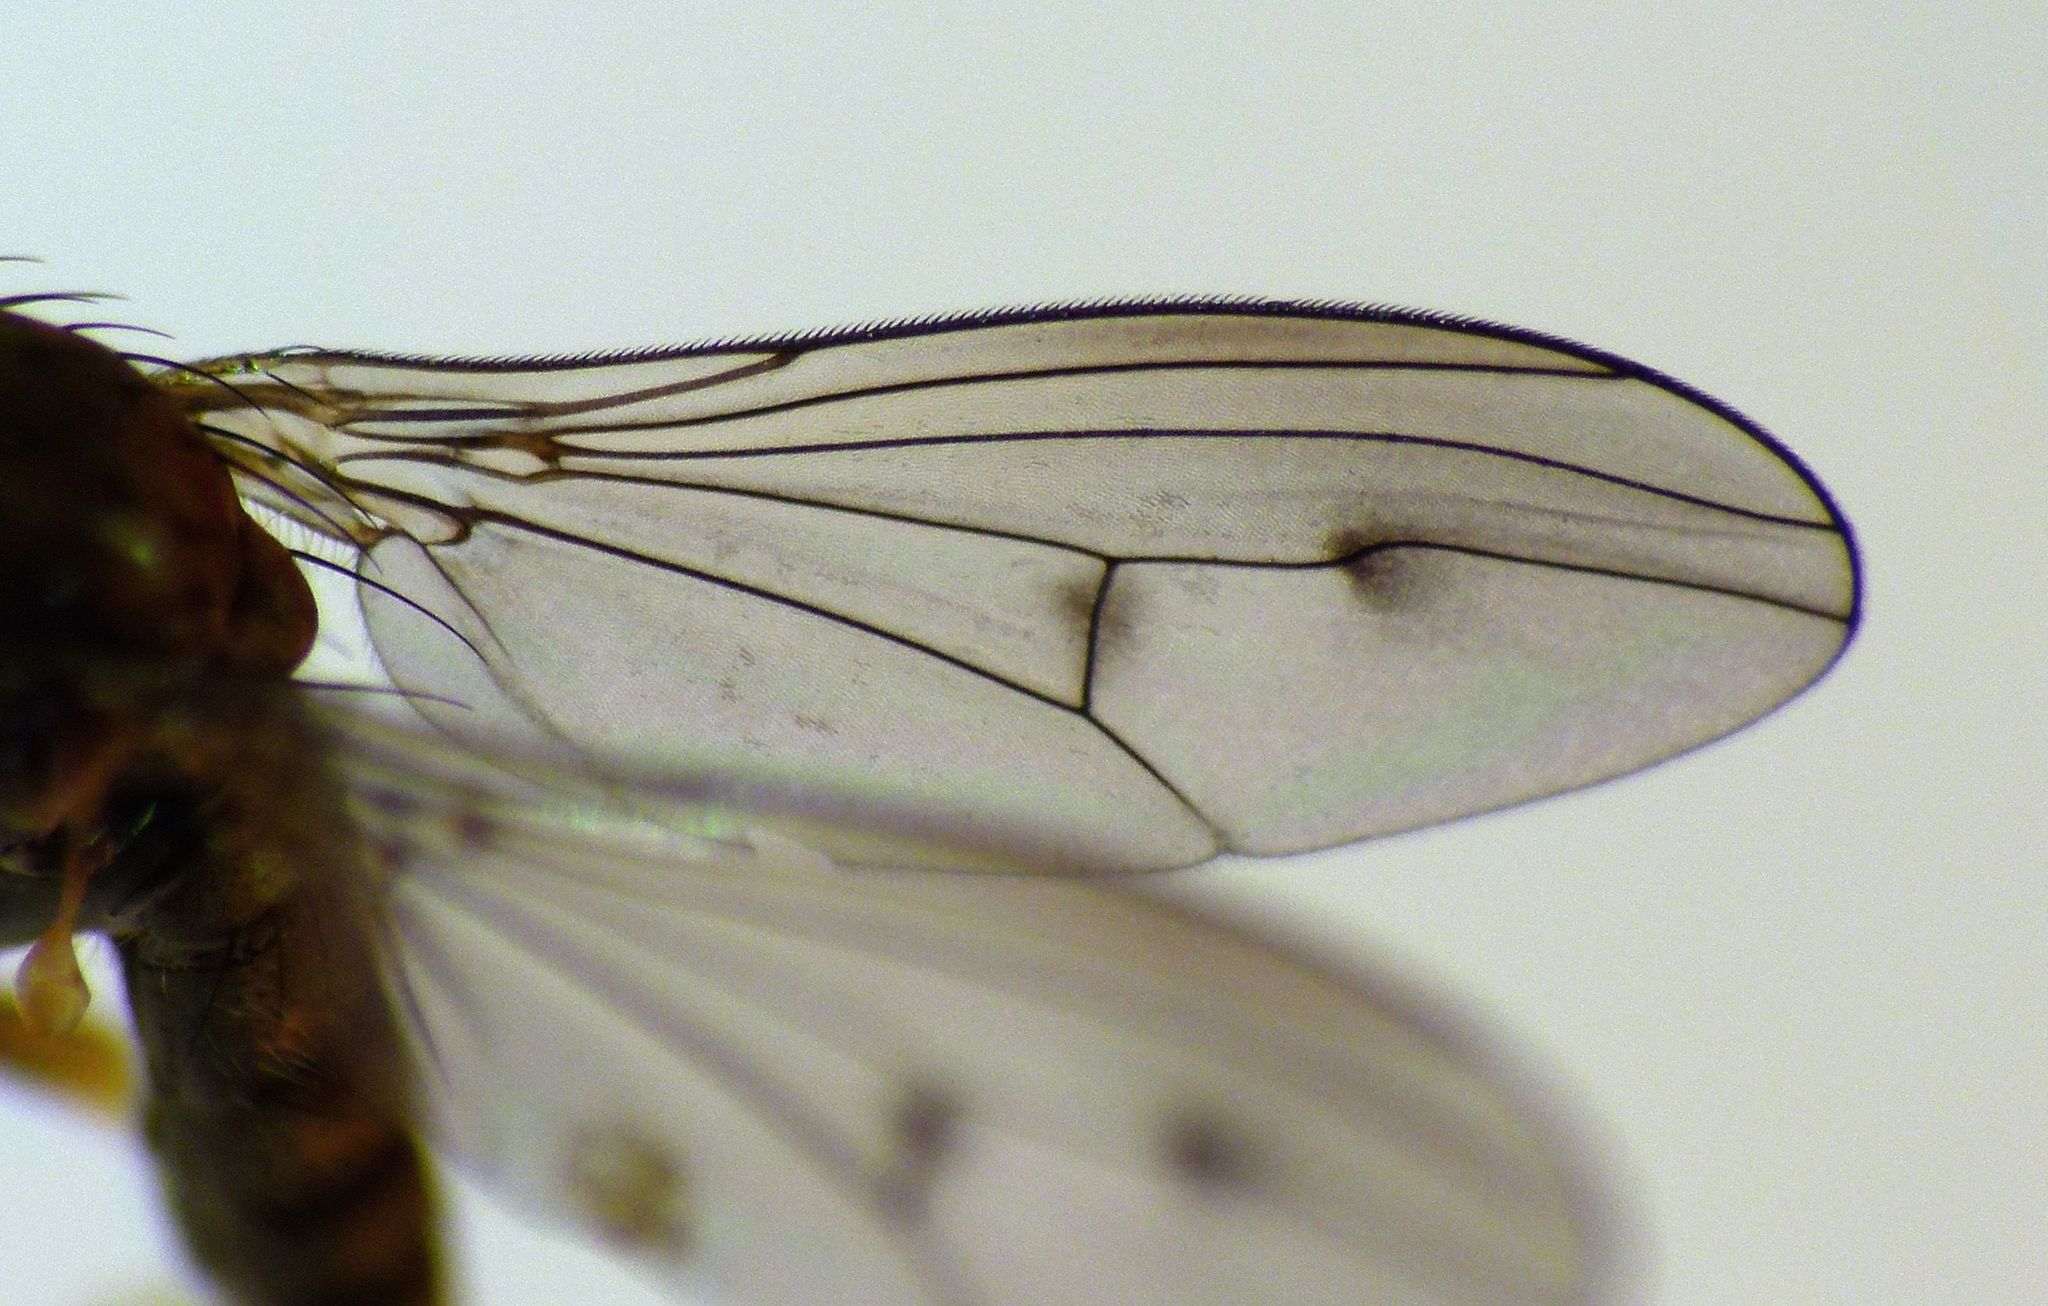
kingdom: Animalia
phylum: Arthropoda
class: Insecta
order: Diptera
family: Dolichopodidae
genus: Helichochaetus
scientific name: Helichochaetus discifer
